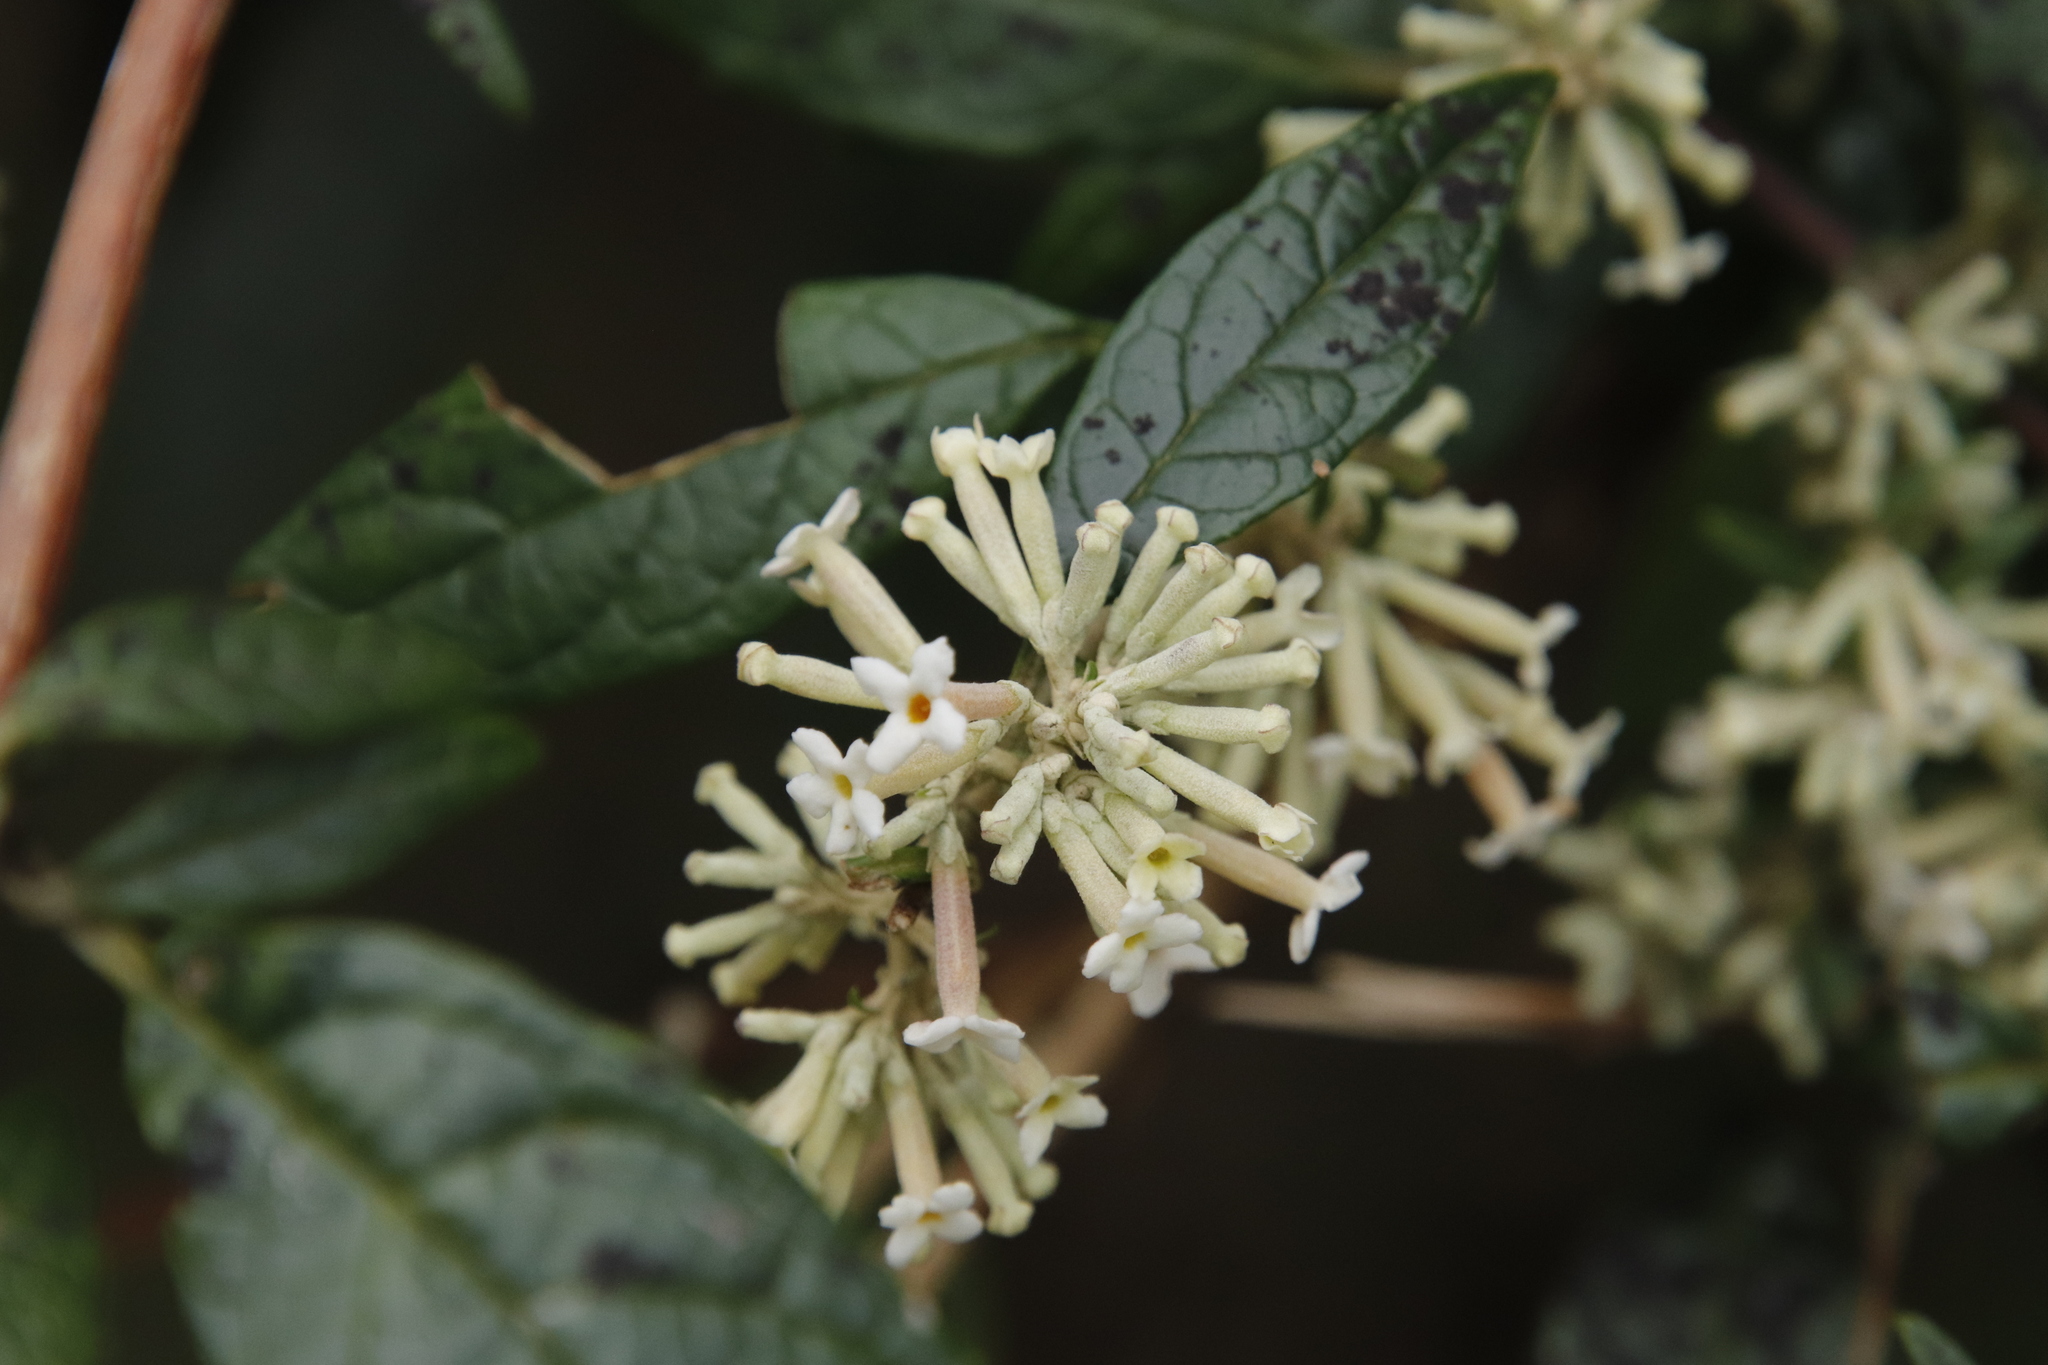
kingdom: Plantae
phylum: Tracheophyta
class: Magnoliopsida
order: Lamiales
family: Scrophulariaceae
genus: Buddleja
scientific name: Buddleja auriculata
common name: Weeping sagewood
